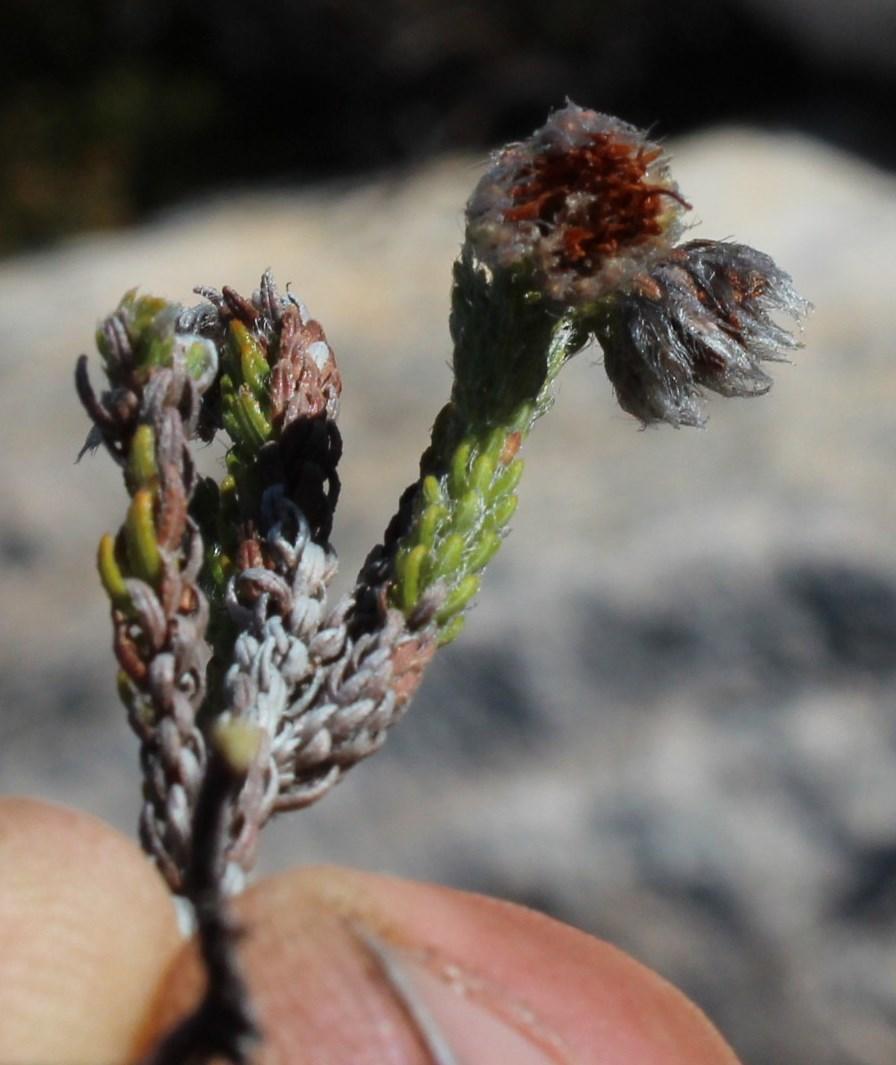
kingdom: Plantae
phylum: Tracheophyta
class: Magnoliopsida
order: Ericales
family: Ericaceae
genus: Erica
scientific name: Erica senilis
